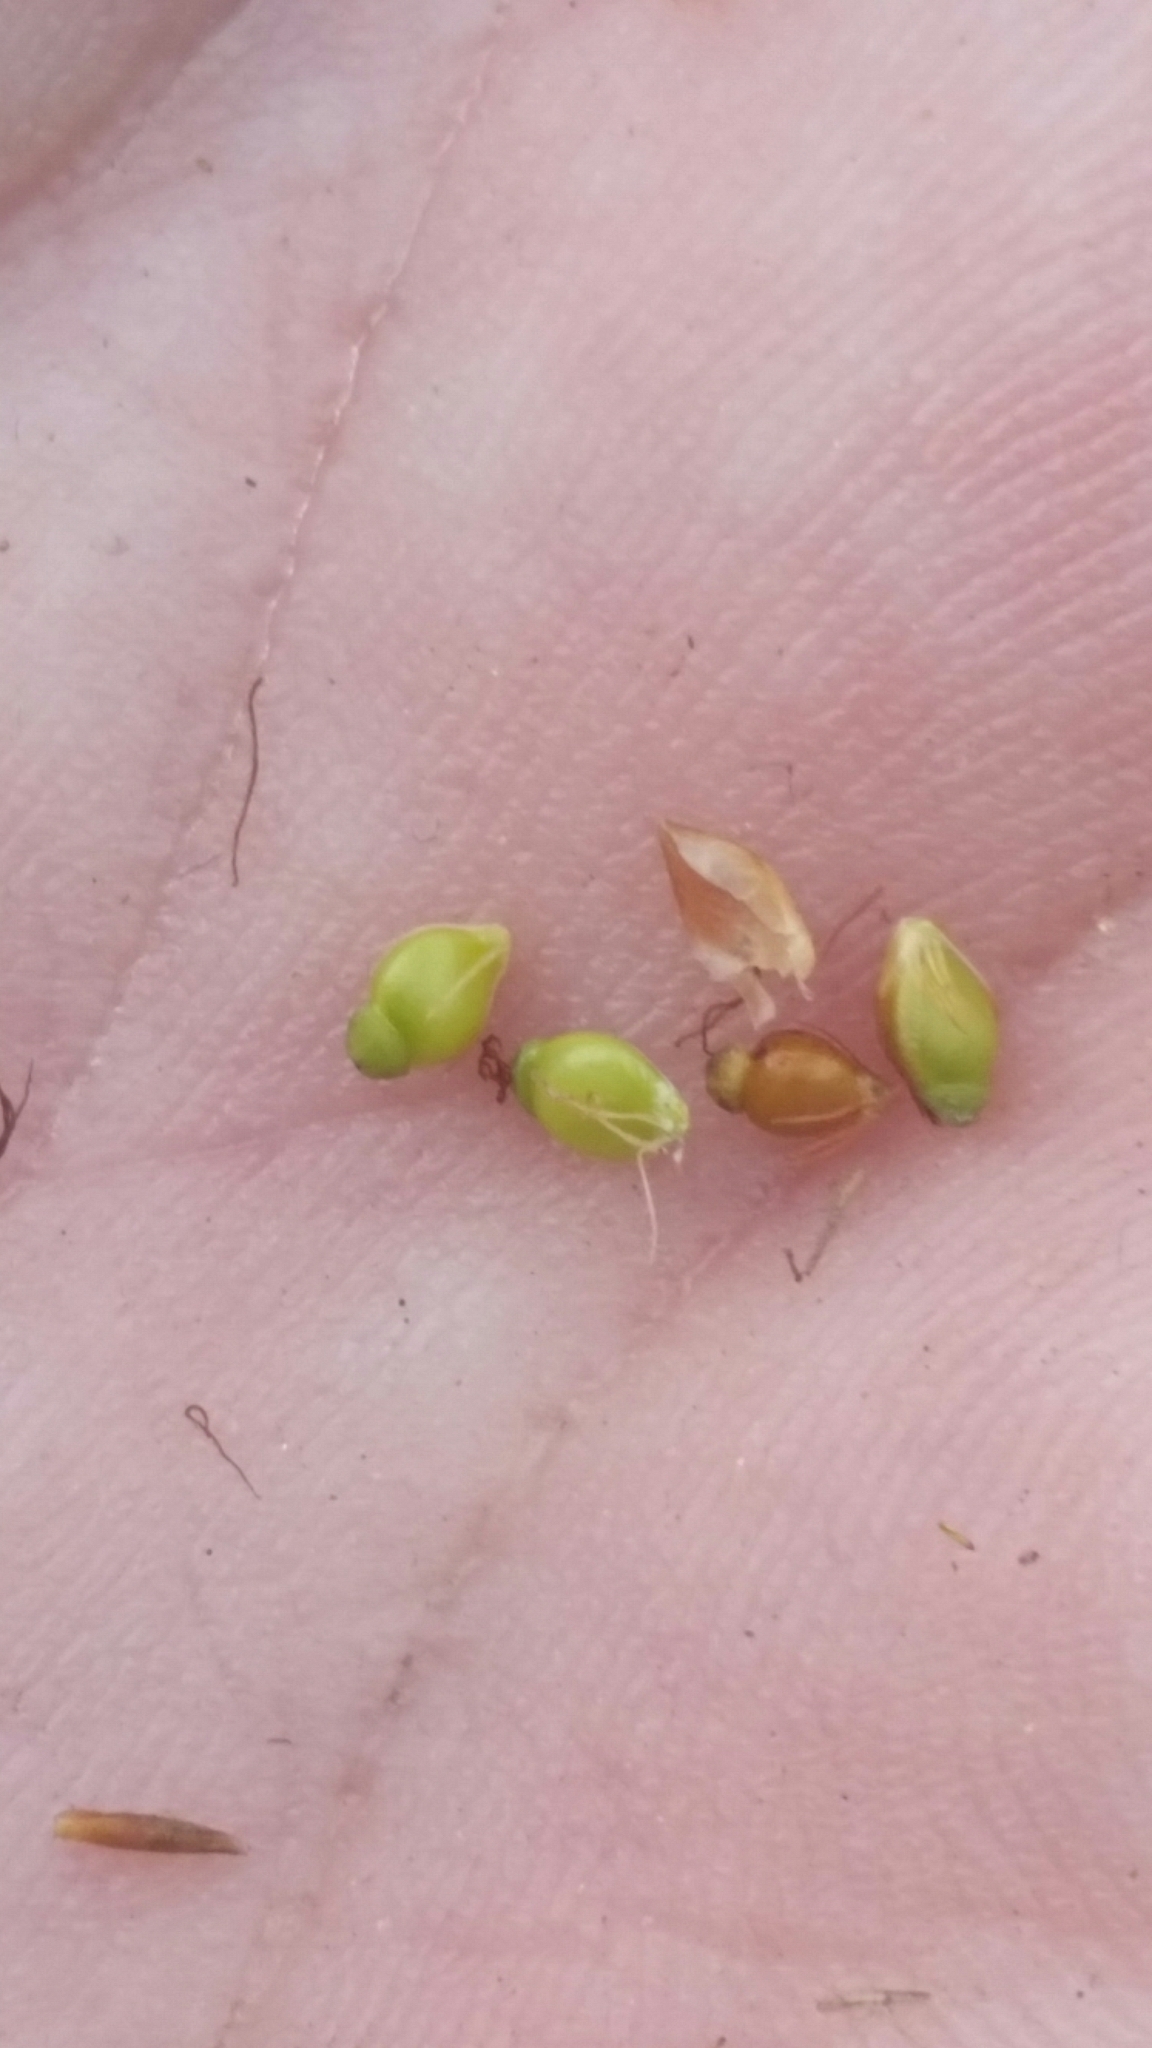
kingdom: Plantae
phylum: Tracheophyta
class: Liliopsida
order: Poales
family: Cyperaceae
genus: Rhynchospora
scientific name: Rhynchospora grayi
